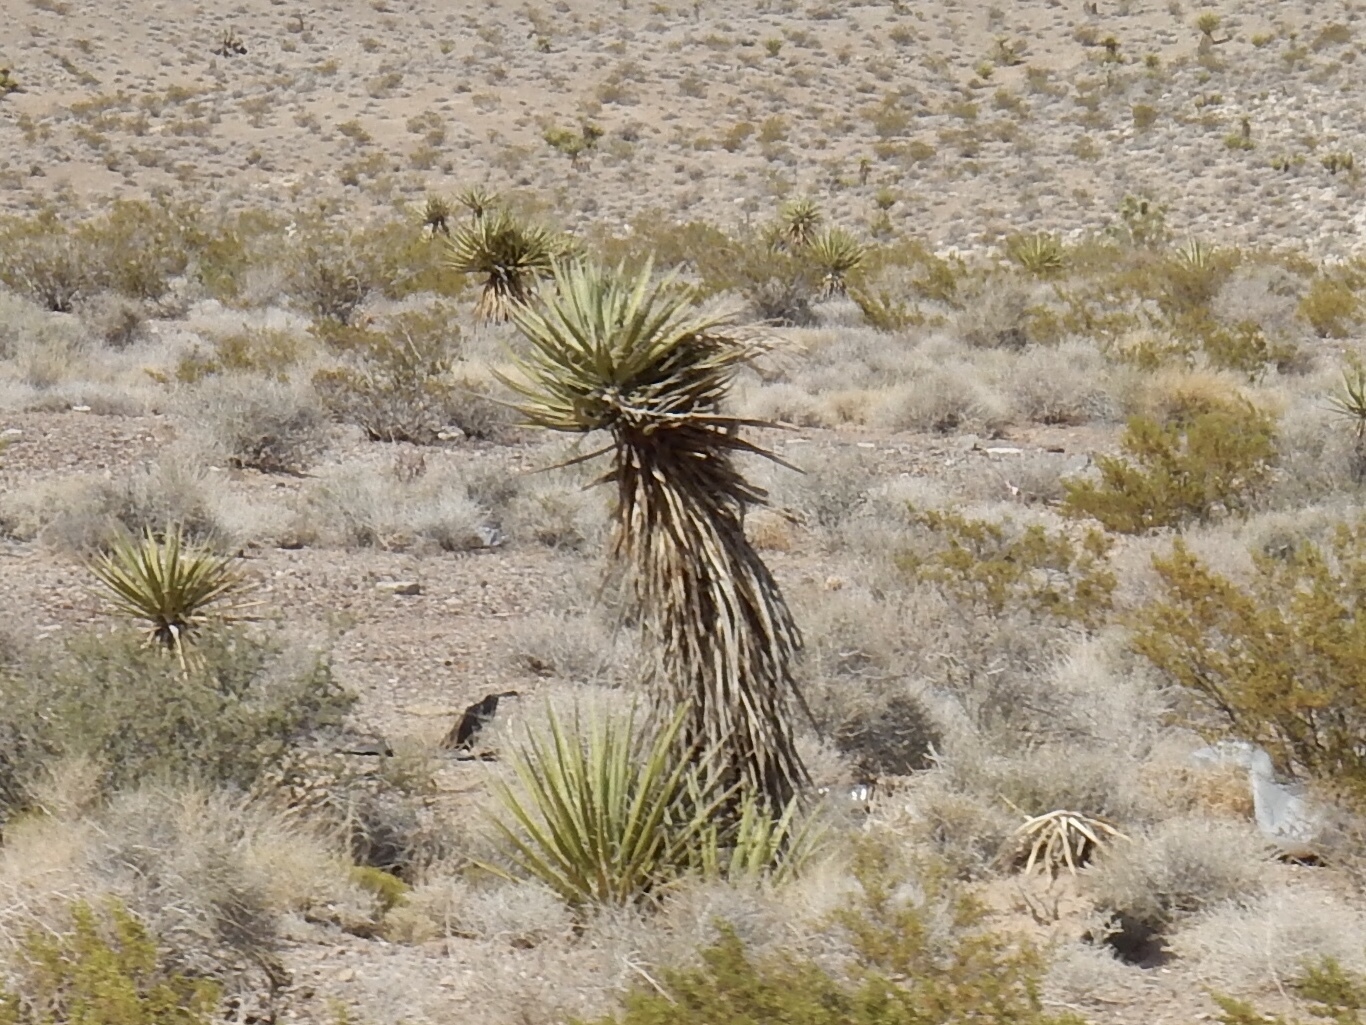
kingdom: Plantae
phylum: Tracheophyta
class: Liliopsida
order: Asparagales
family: Asparagaceae
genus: Yucca
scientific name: Yucca schidigera
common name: Mojave yucca
